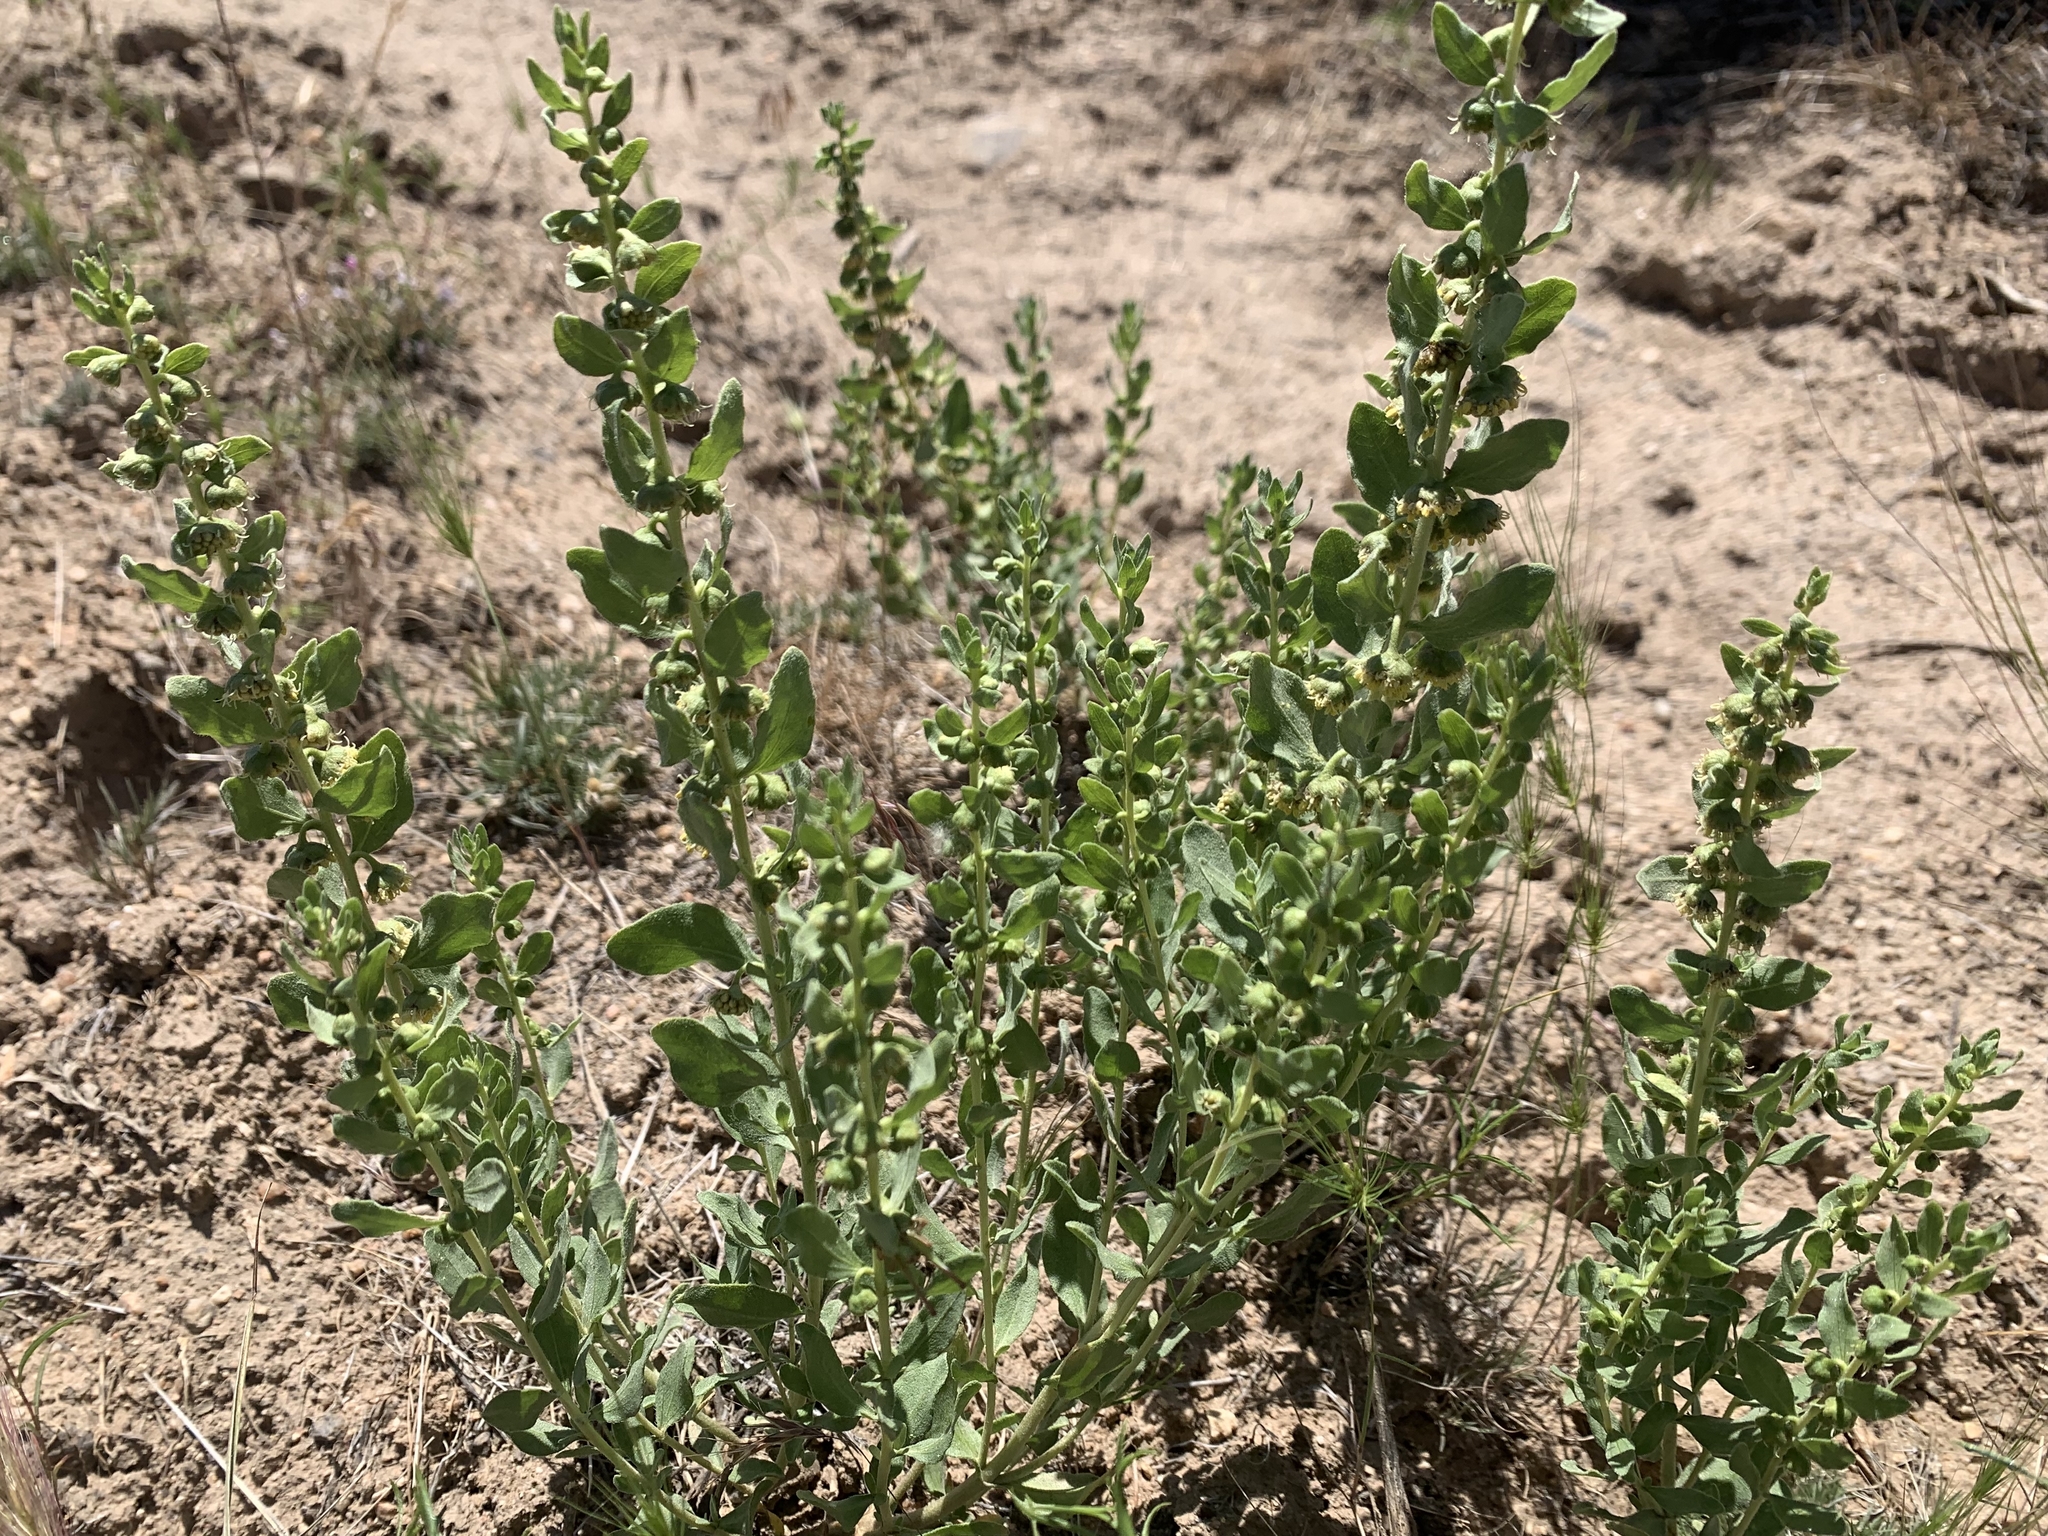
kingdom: Plantae
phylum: Tracheophyta
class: Magnoliopsida
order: Asterales
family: Asteraceae
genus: Iva
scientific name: Iva axillaris
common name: Poverty sumpweed
